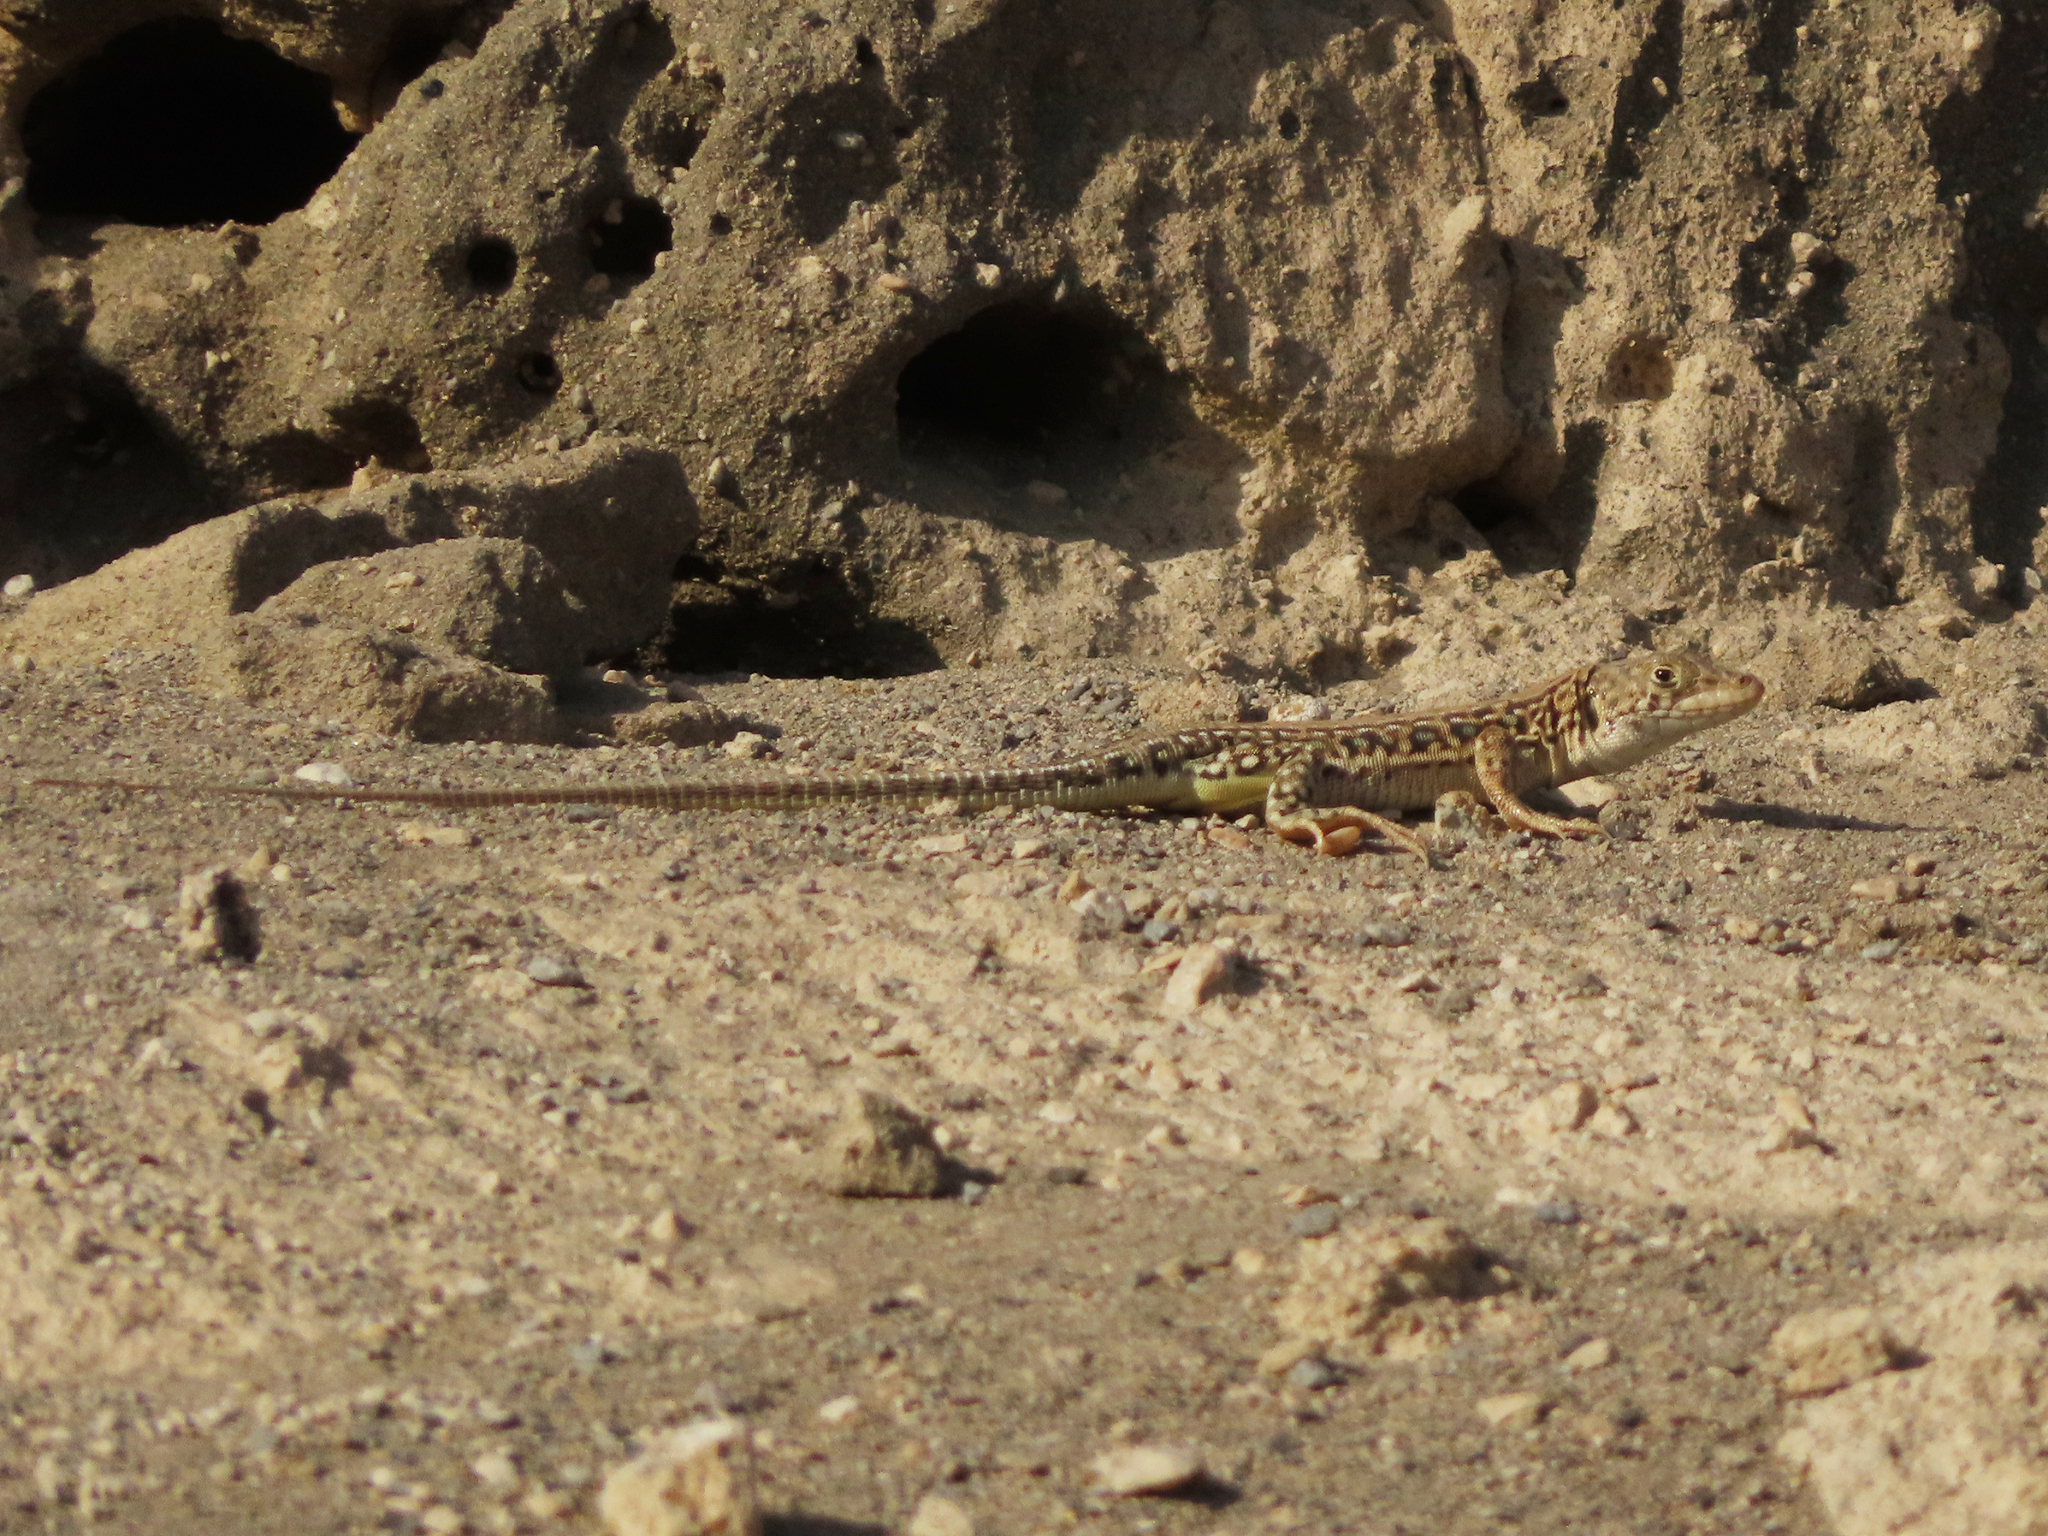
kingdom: Animalia
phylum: Chordata
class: Squamata
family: Lacertidae
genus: Eremias
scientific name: Eremias strauchi
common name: Strauch's racerunner
